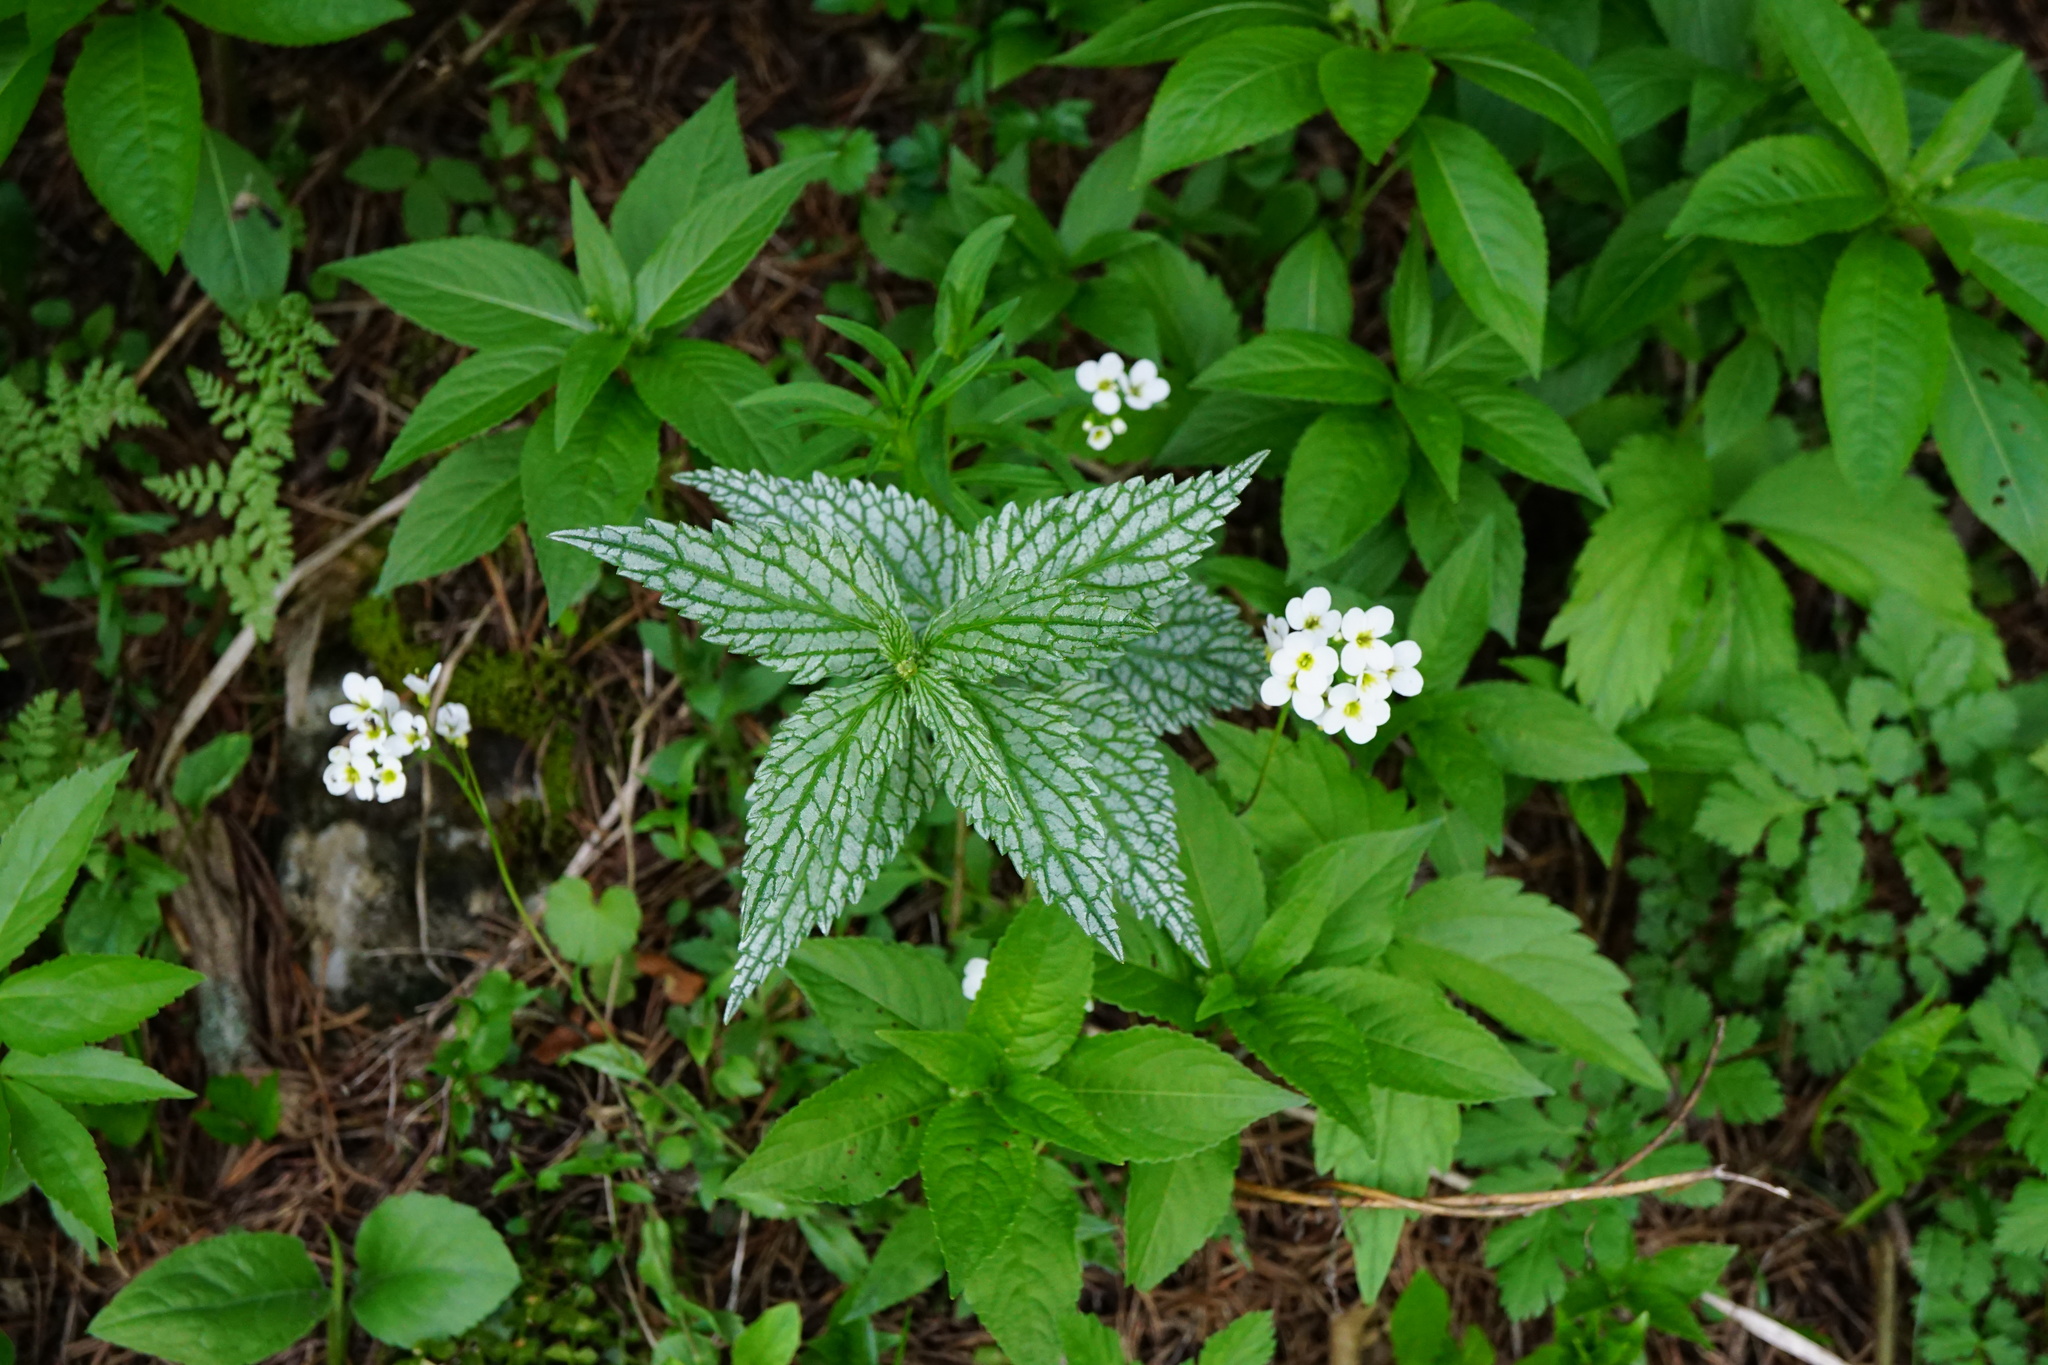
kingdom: Plantae
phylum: Tracheophyta
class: Magnoliopsida
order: Lamiales
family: Lamiaceae
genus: Lamium
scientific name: Lamium galeobdolon
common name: Yellow archangel
